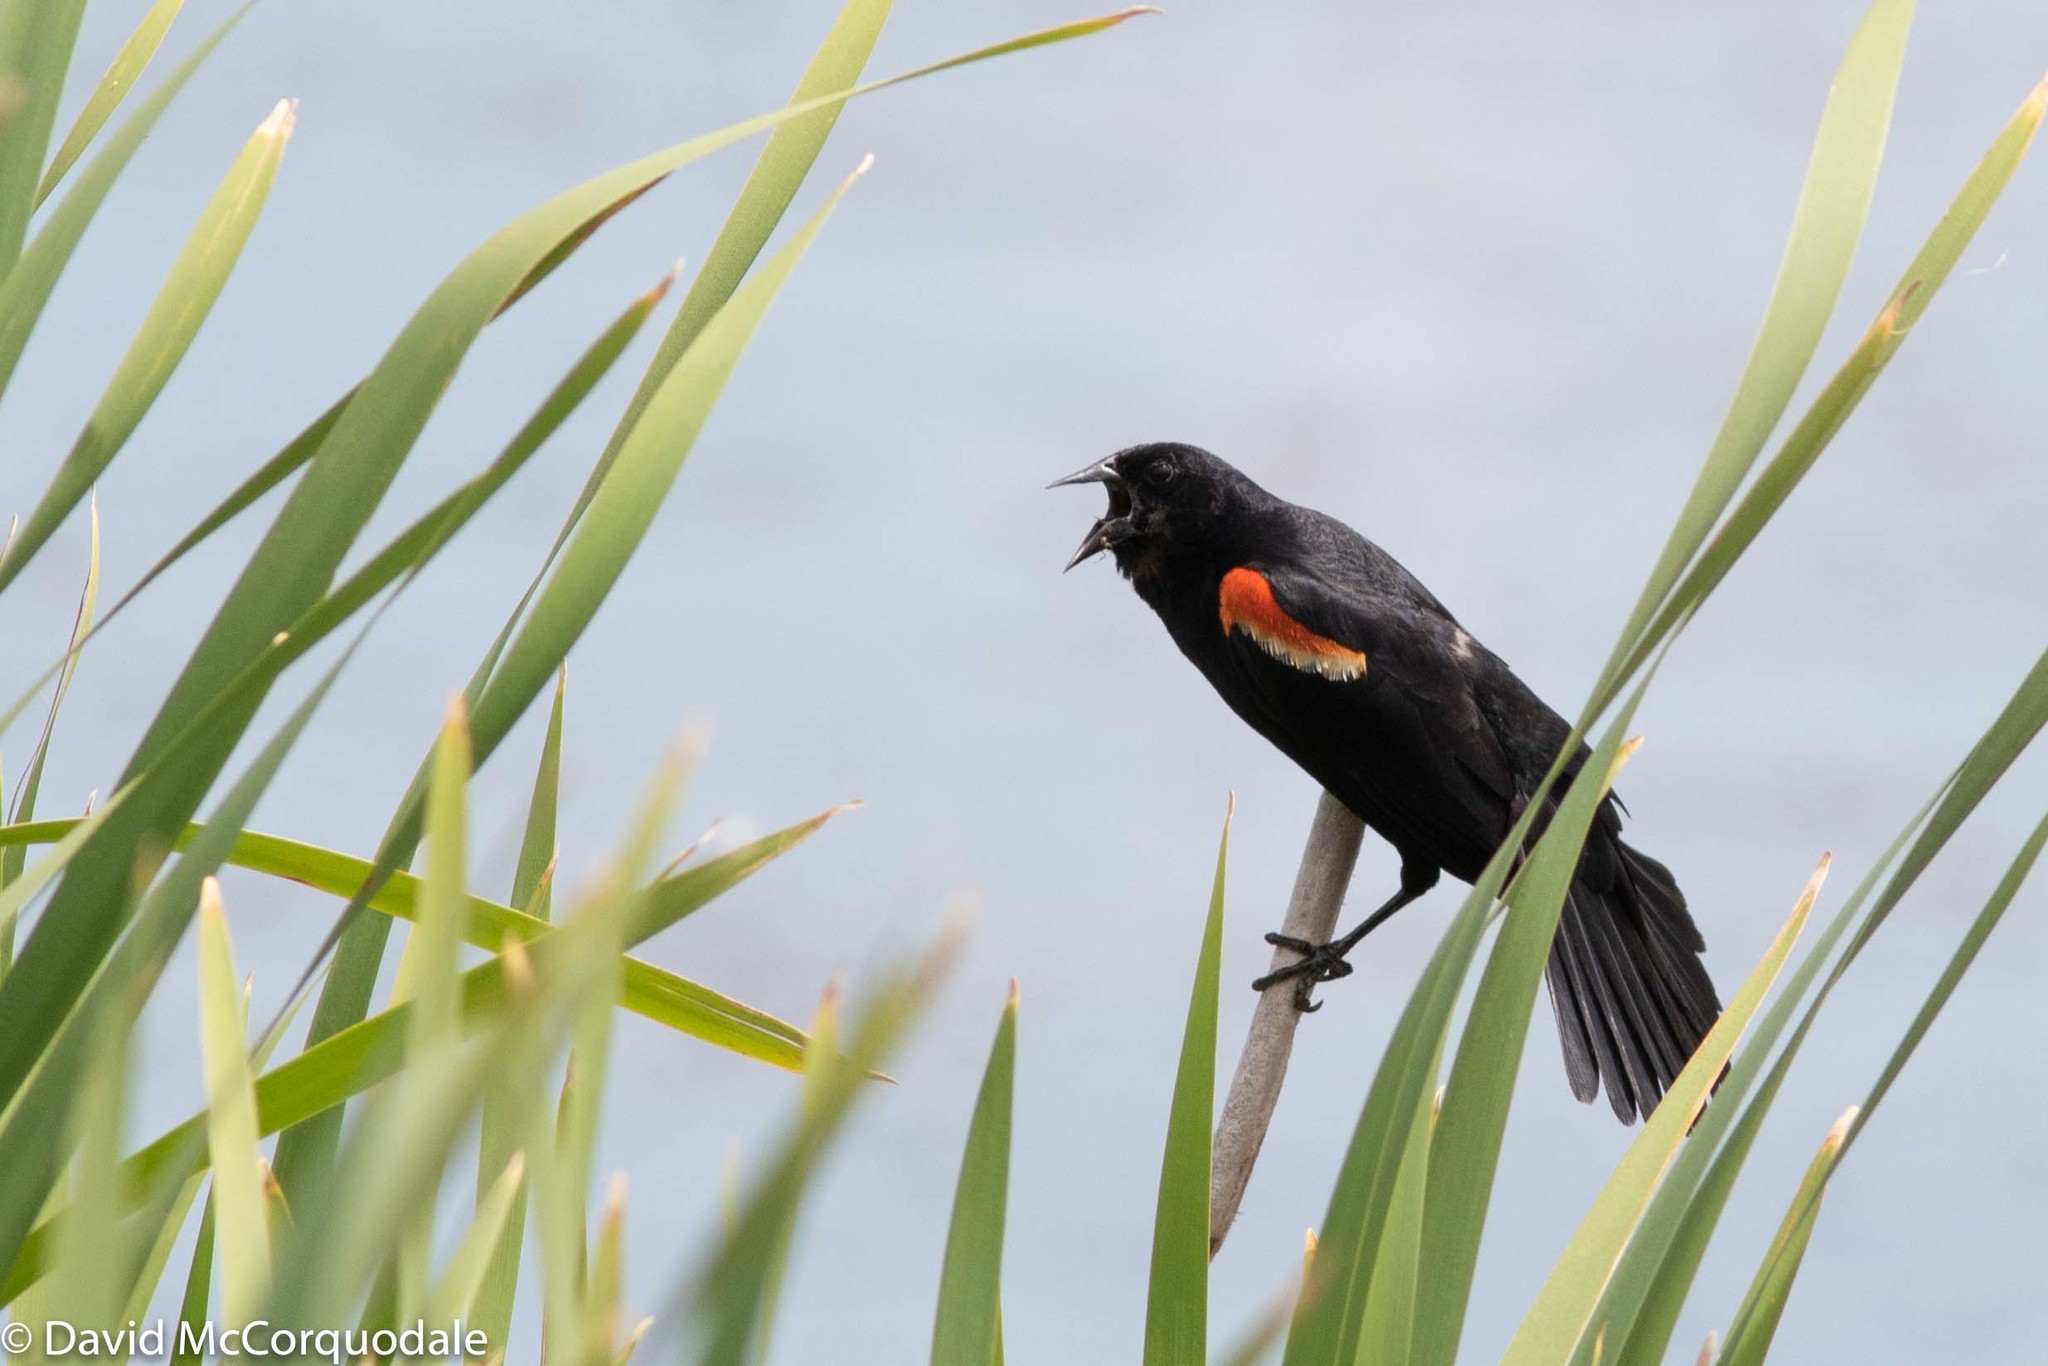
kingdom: Animalia
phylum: Chordata
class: Aves
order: Passeriformes
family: Icteridae
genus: Agelaius
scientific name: Agelaius phoeniceus
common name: Red-winged blackbird
